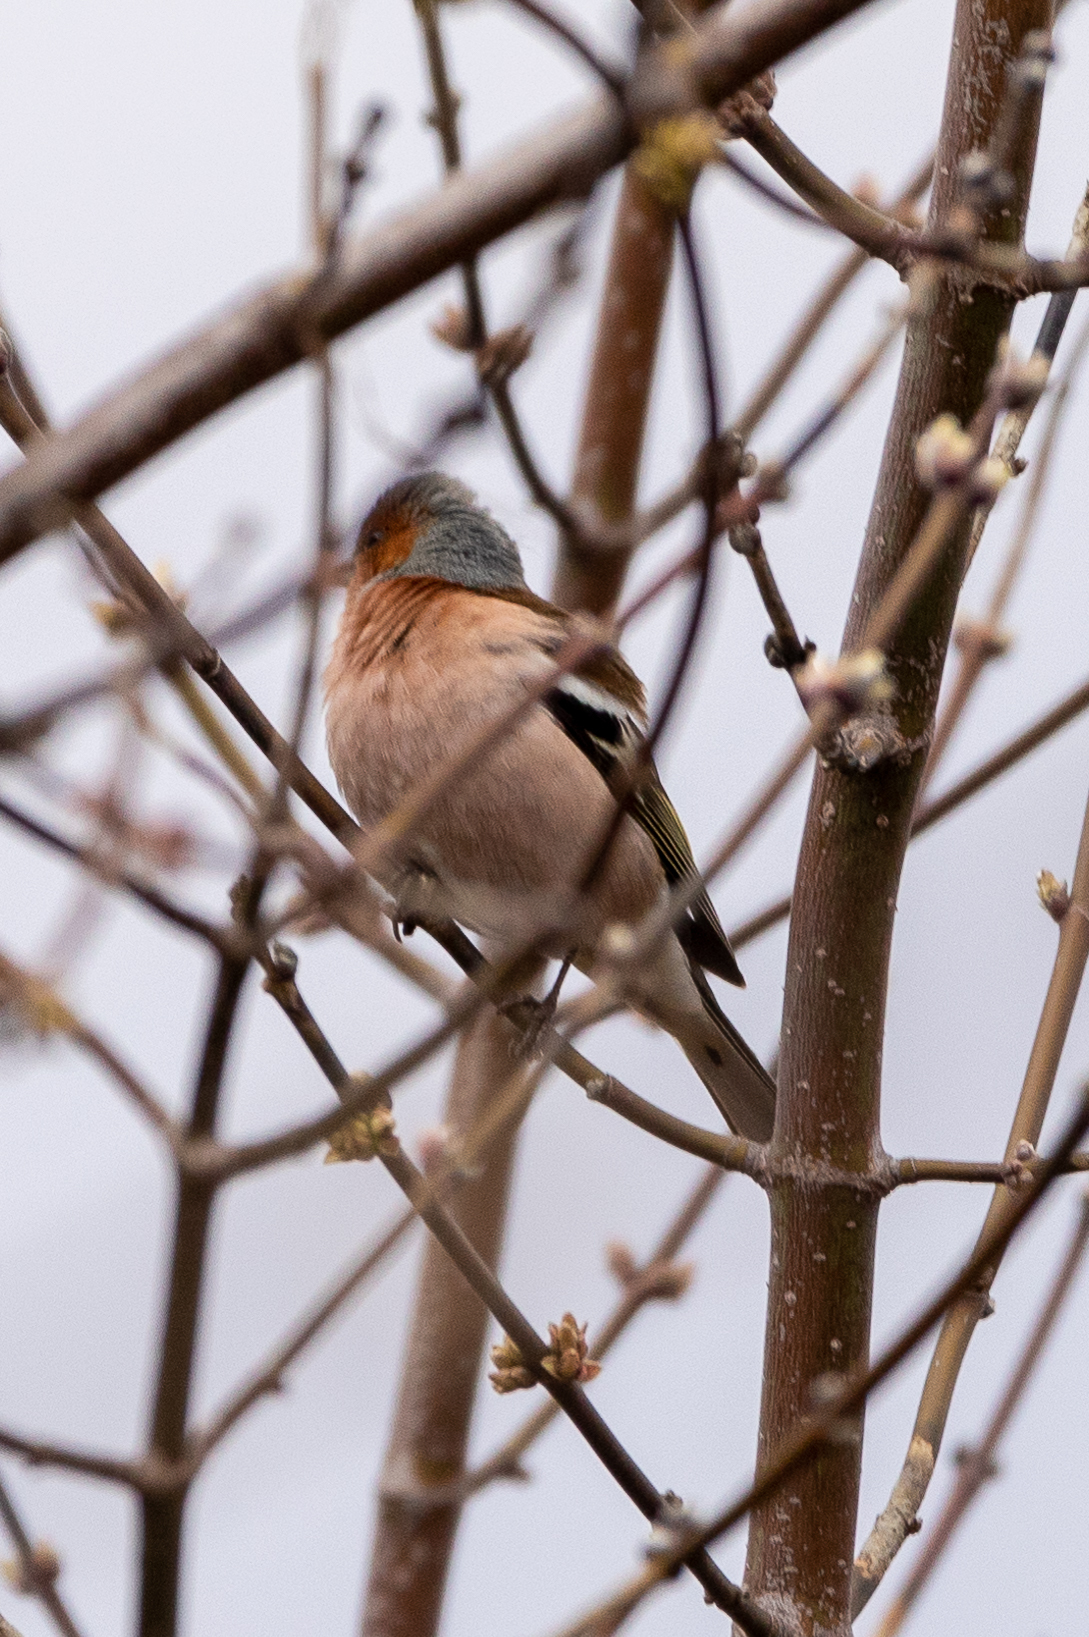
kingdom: Animalia
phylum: Chordata
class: Aves
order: Passeriformes
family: Fringillidae
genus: Fringilla
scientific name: Fringilla coelebs
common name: Common chaffinch
